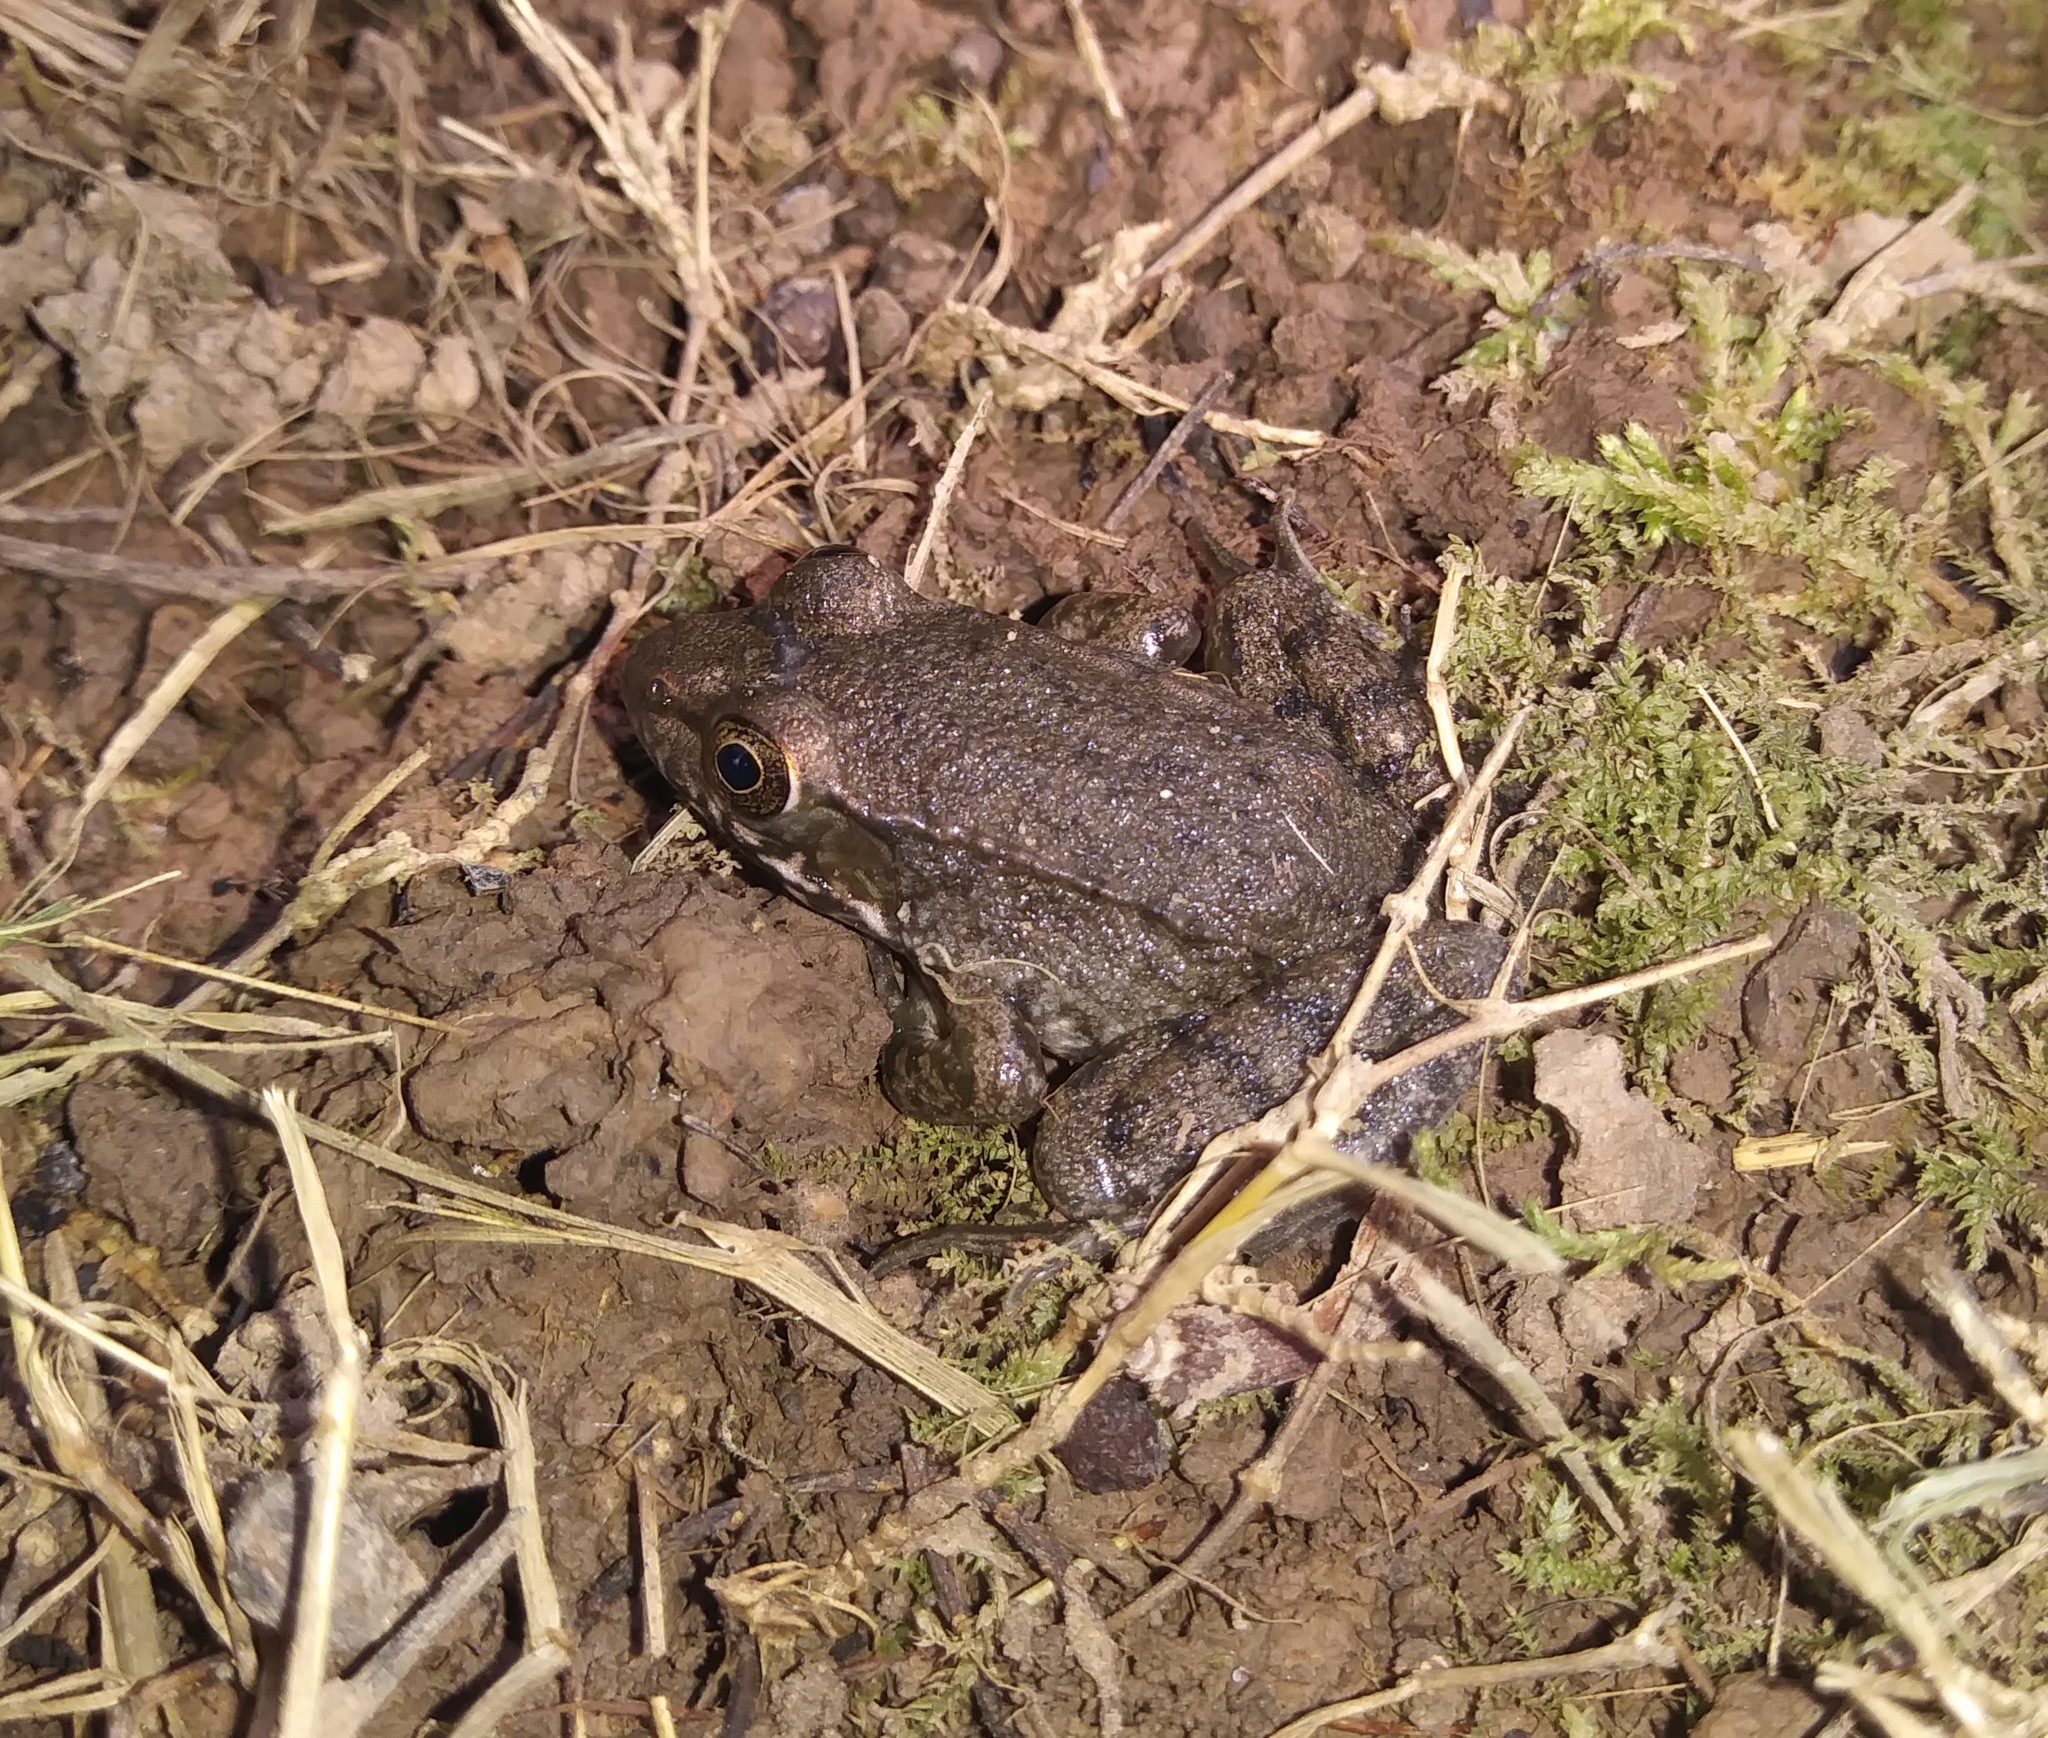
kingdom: Animalia
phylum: Chordata
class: Amphibia
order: Anura
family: Ranidae
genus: Lithobates
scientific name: Lithobates clamitans
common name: Green frog
